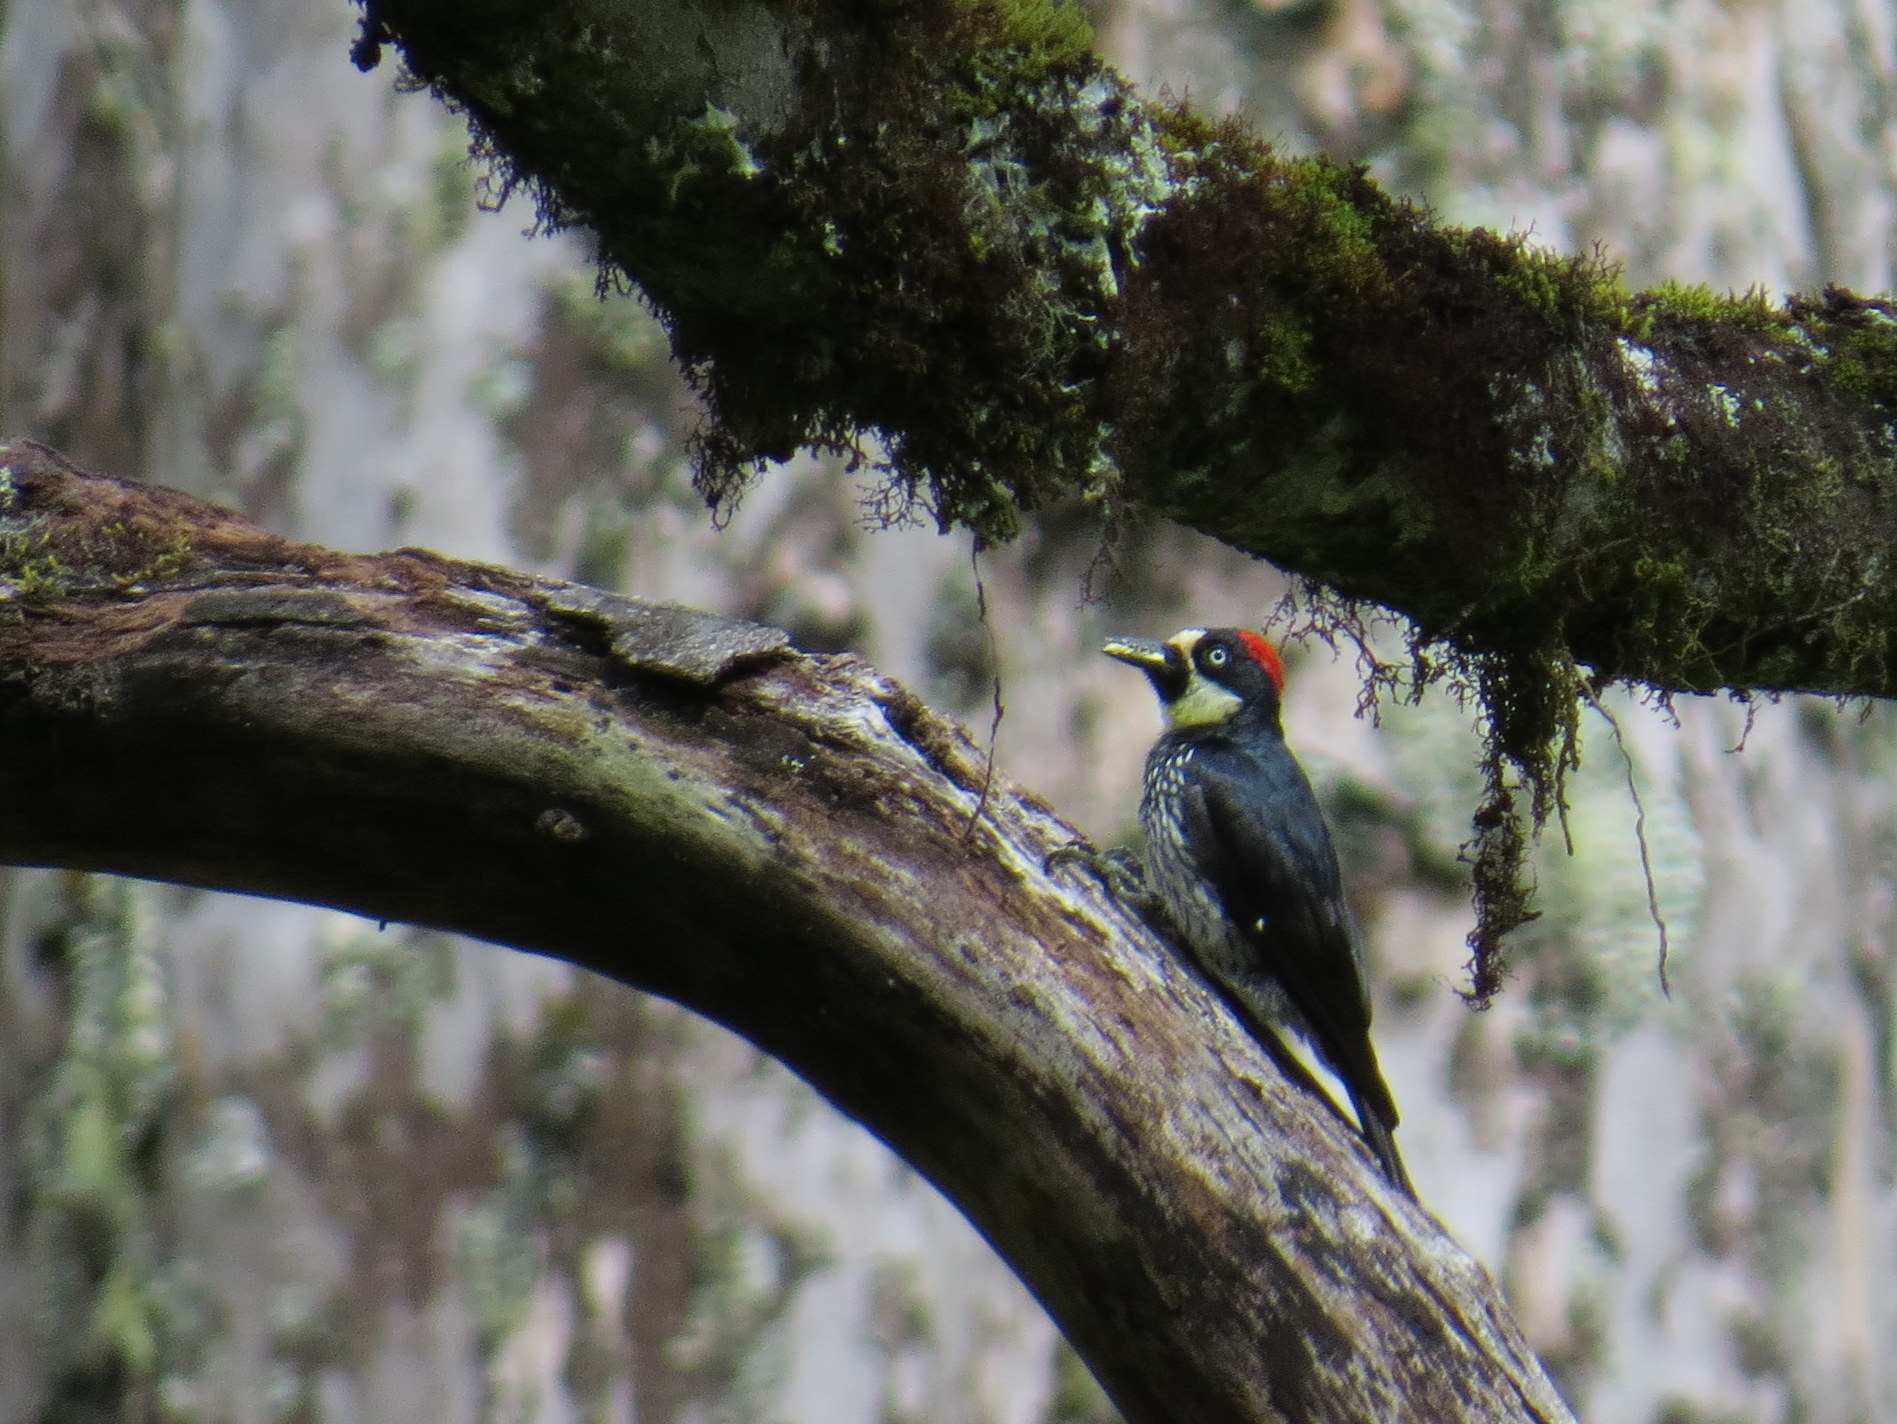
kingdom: Animalia
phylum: Chordata
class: Aves
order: Piciformes
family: Picidae
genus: Melanerpes
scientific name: Melanerpes formicivorus
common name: Acorn woodpecker
